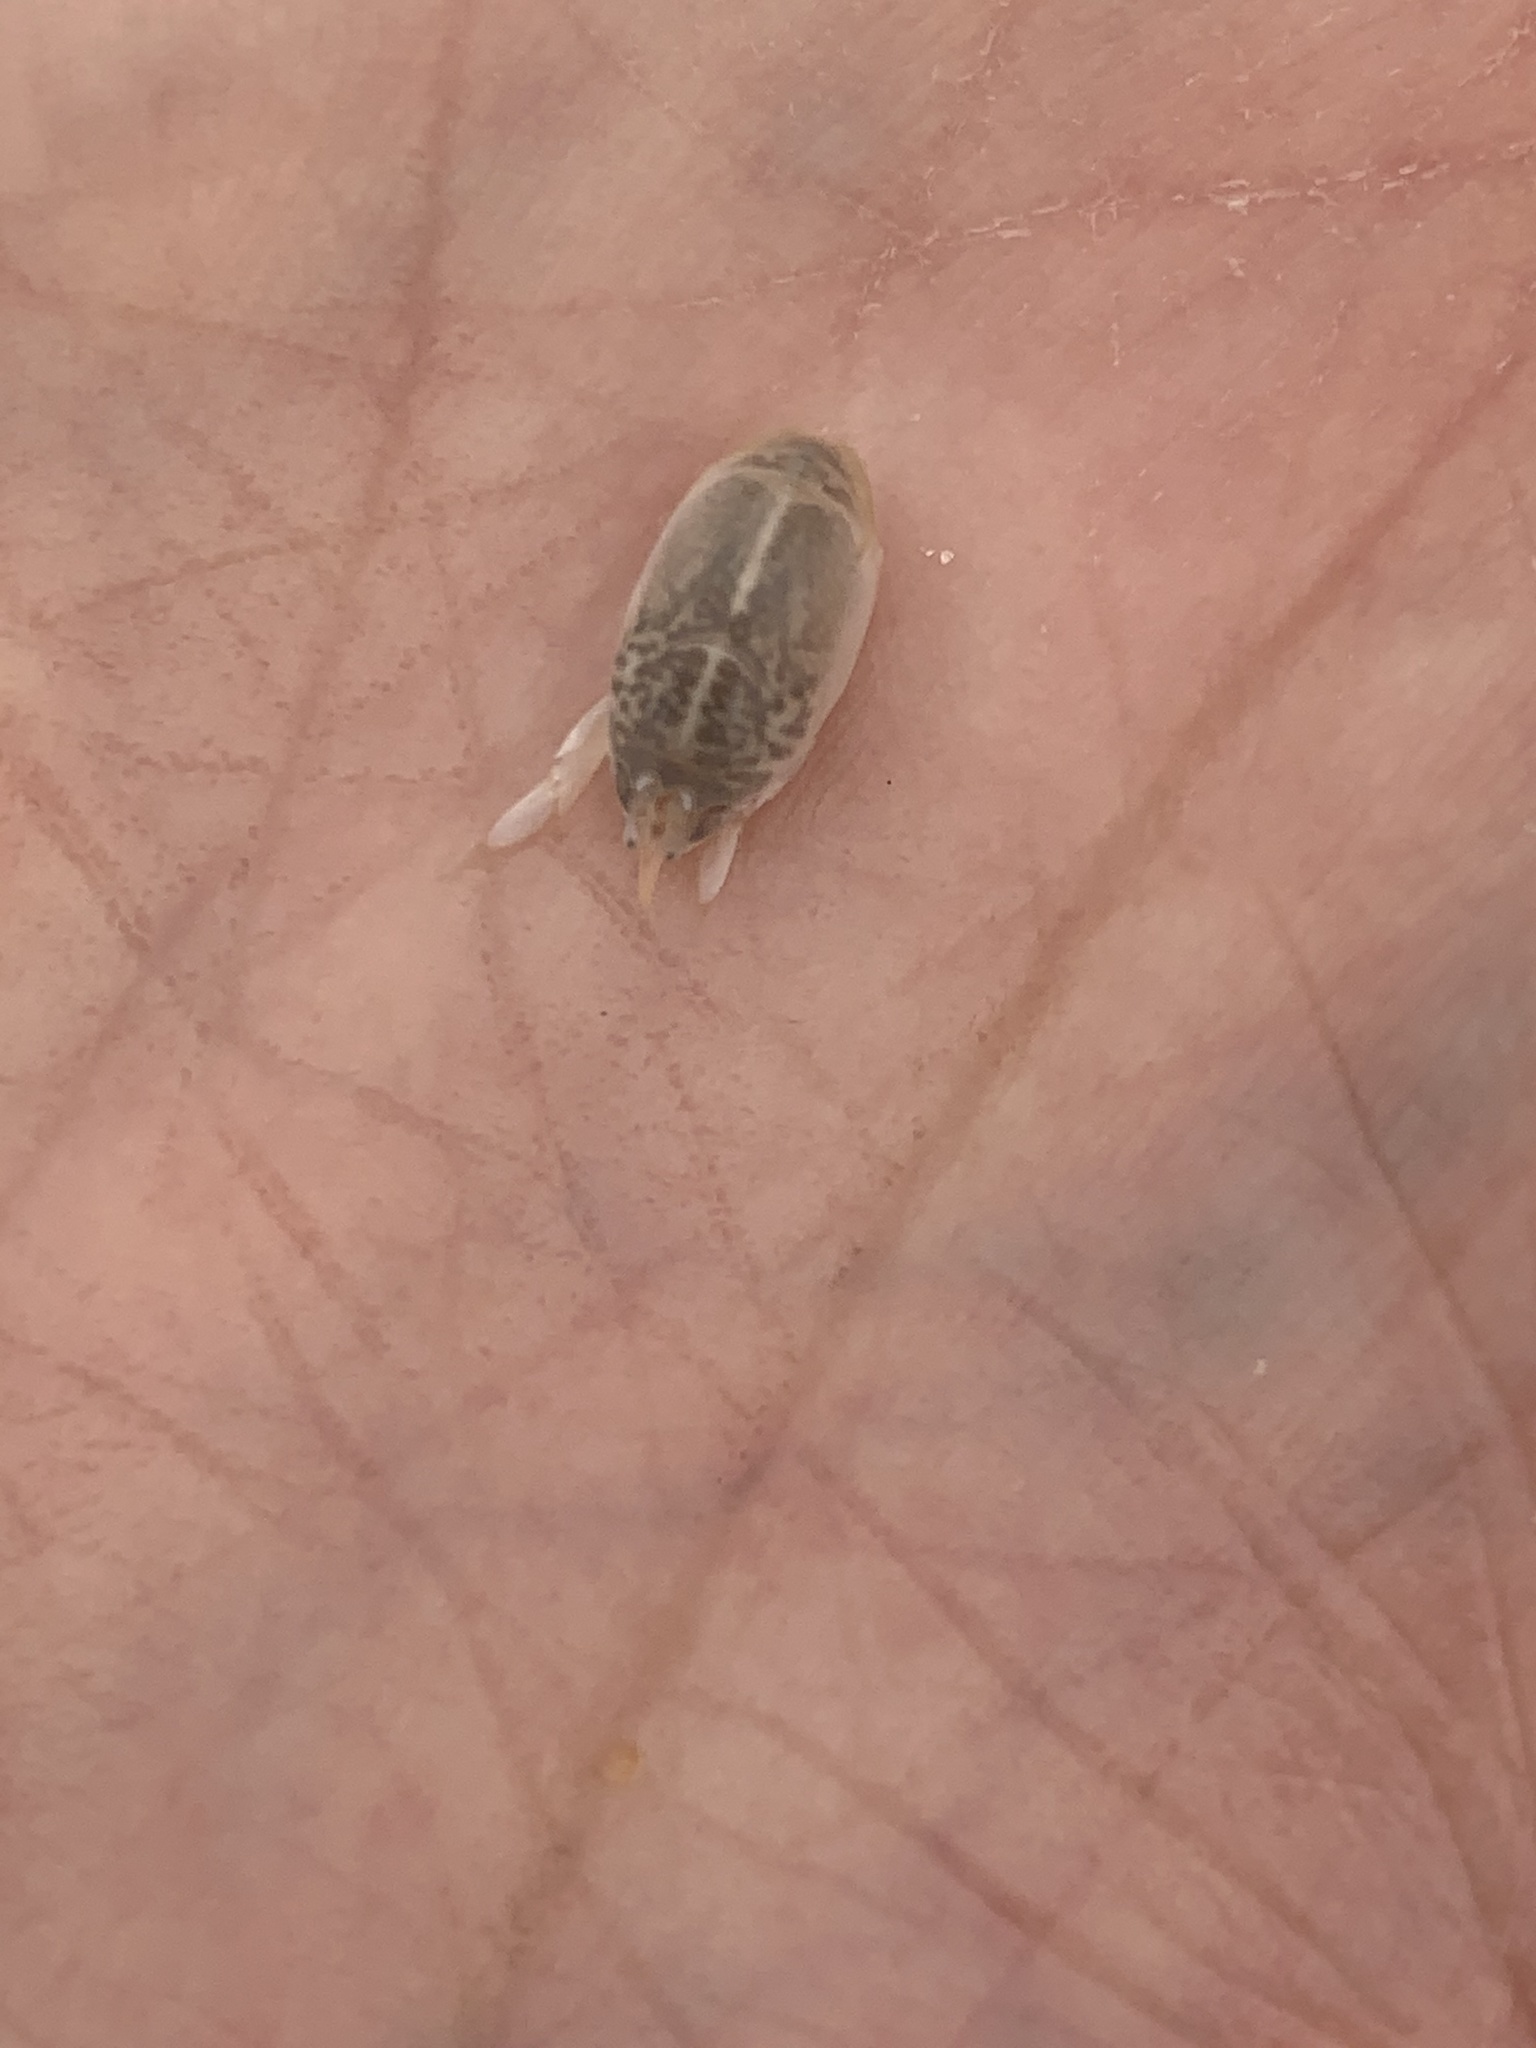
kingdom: Animalia
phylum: Arthropoda
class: Malacostraca
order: Decapoda
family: Hippidae
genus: Emerita
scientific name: Emerita talpoida
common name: Atlantic sand crab
